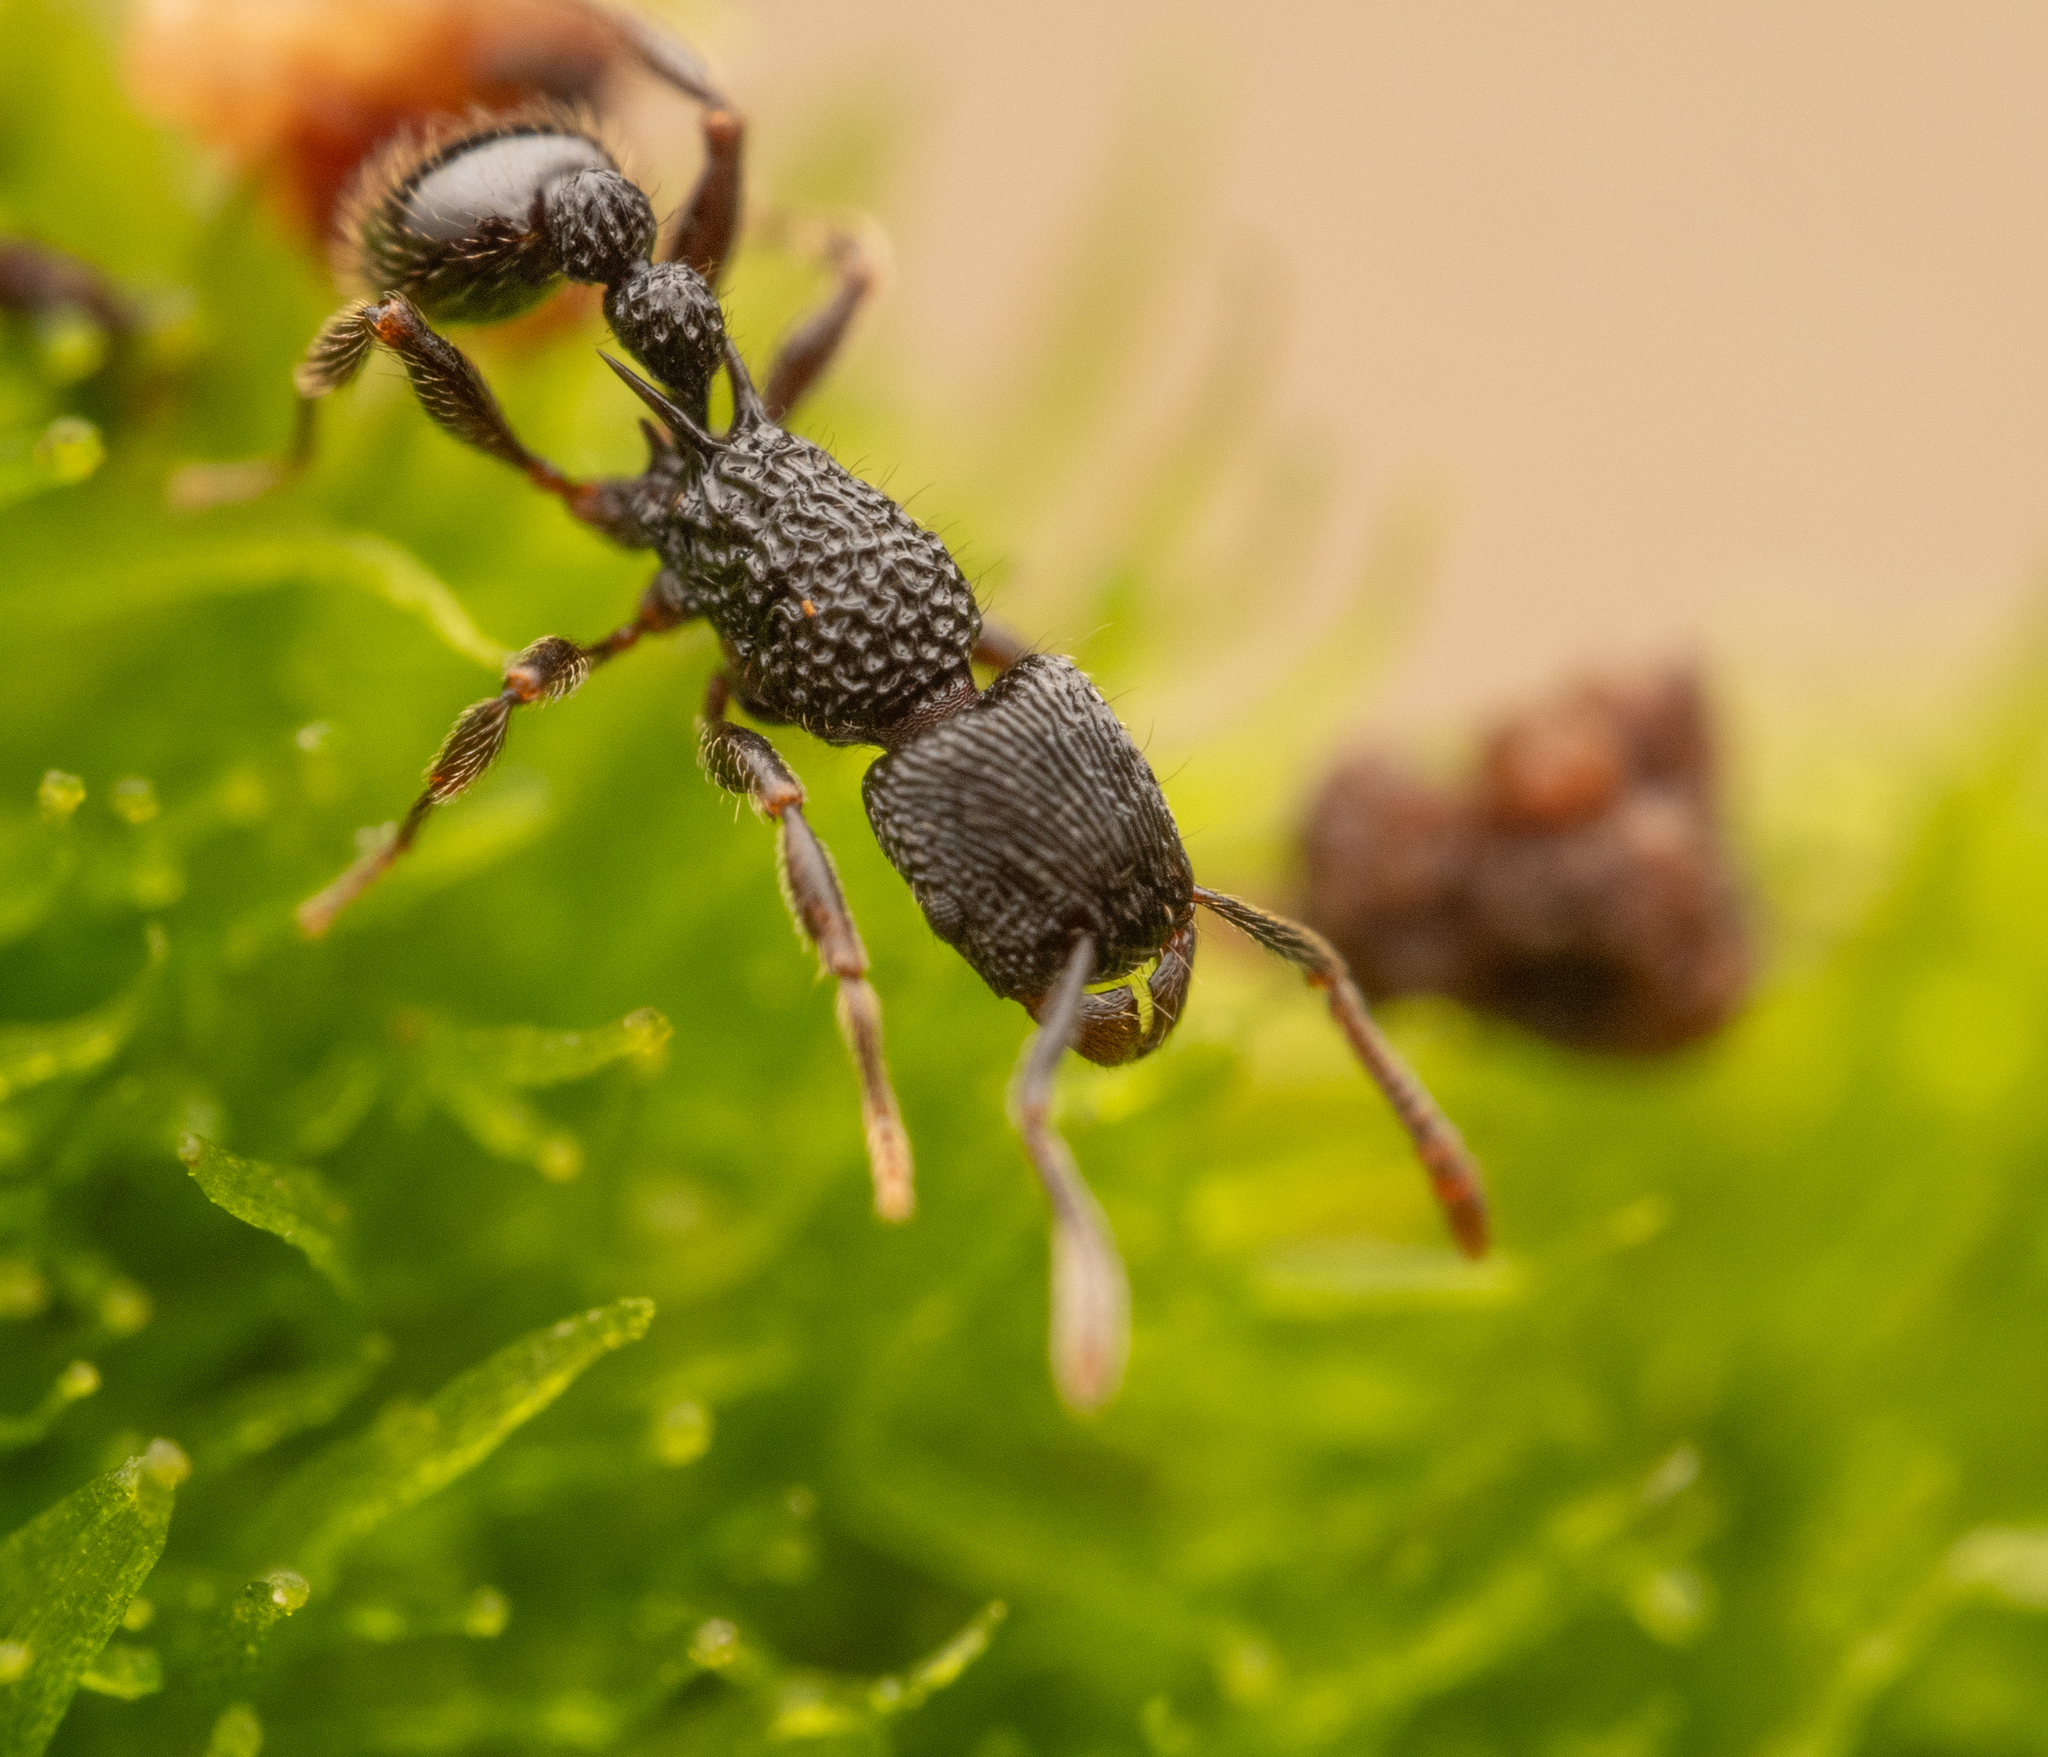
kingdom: Animalia
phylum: Arthropoda
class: Insecta
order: Hymenoptera
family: Formicidae
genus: Tetramorium
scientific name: Tetramorium sculptatum
